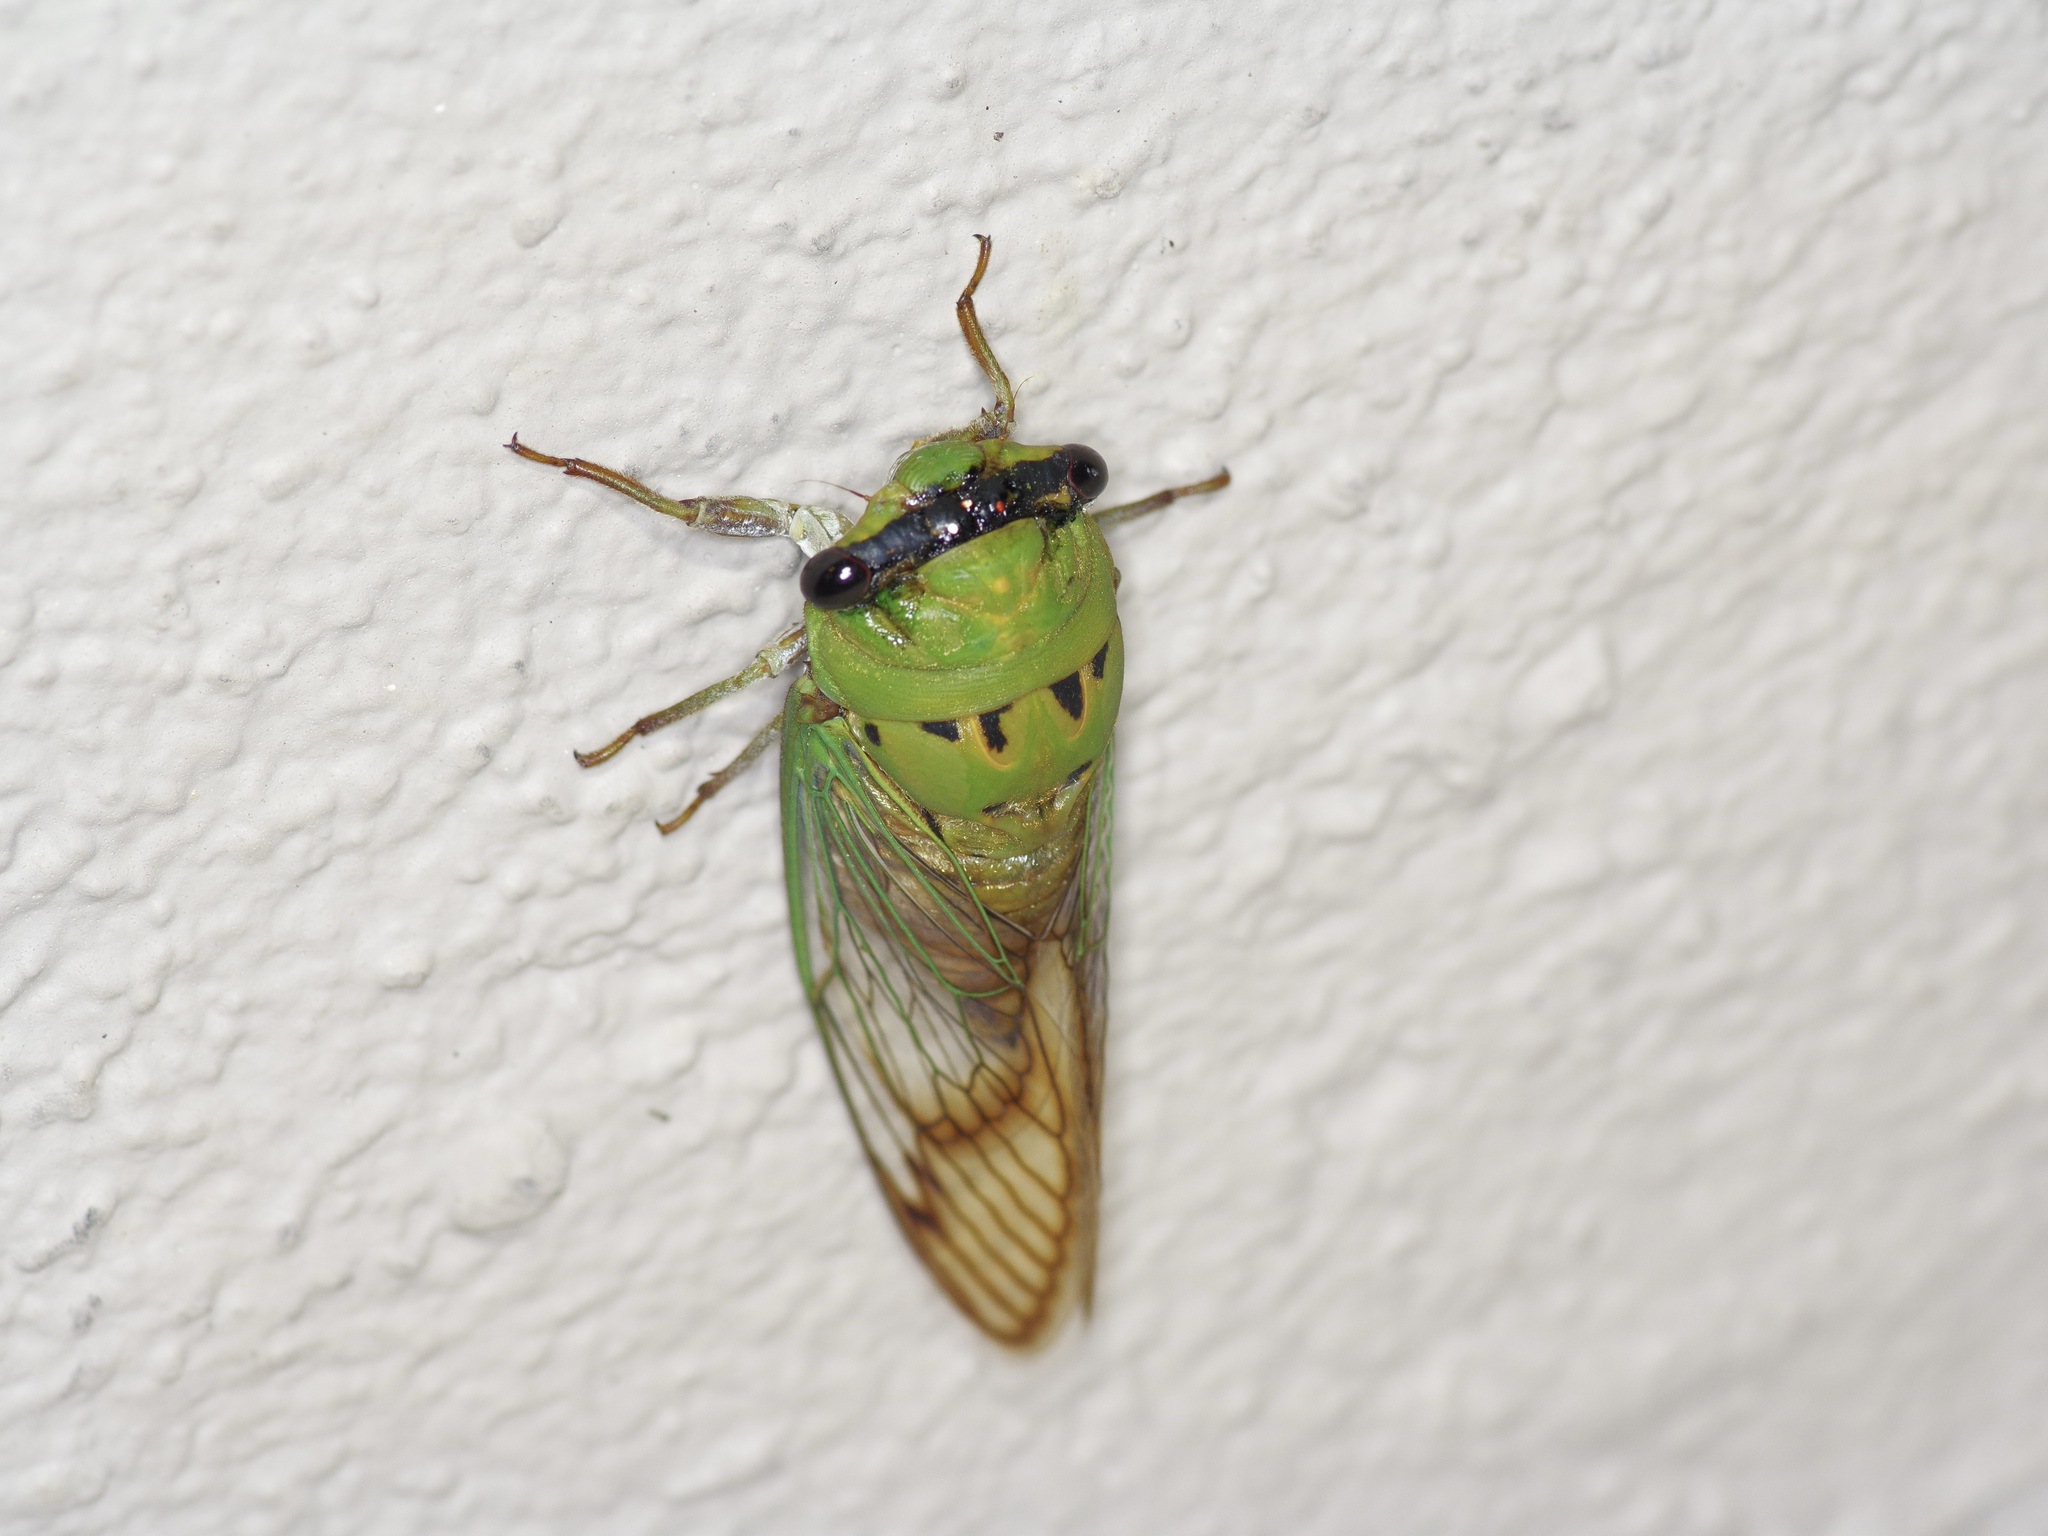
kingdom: Animalia
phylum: Arthropoda
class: Insecta
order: Hemiptera
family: Cicadidae
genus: Neotibicen
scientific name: Neotibicen superbus
